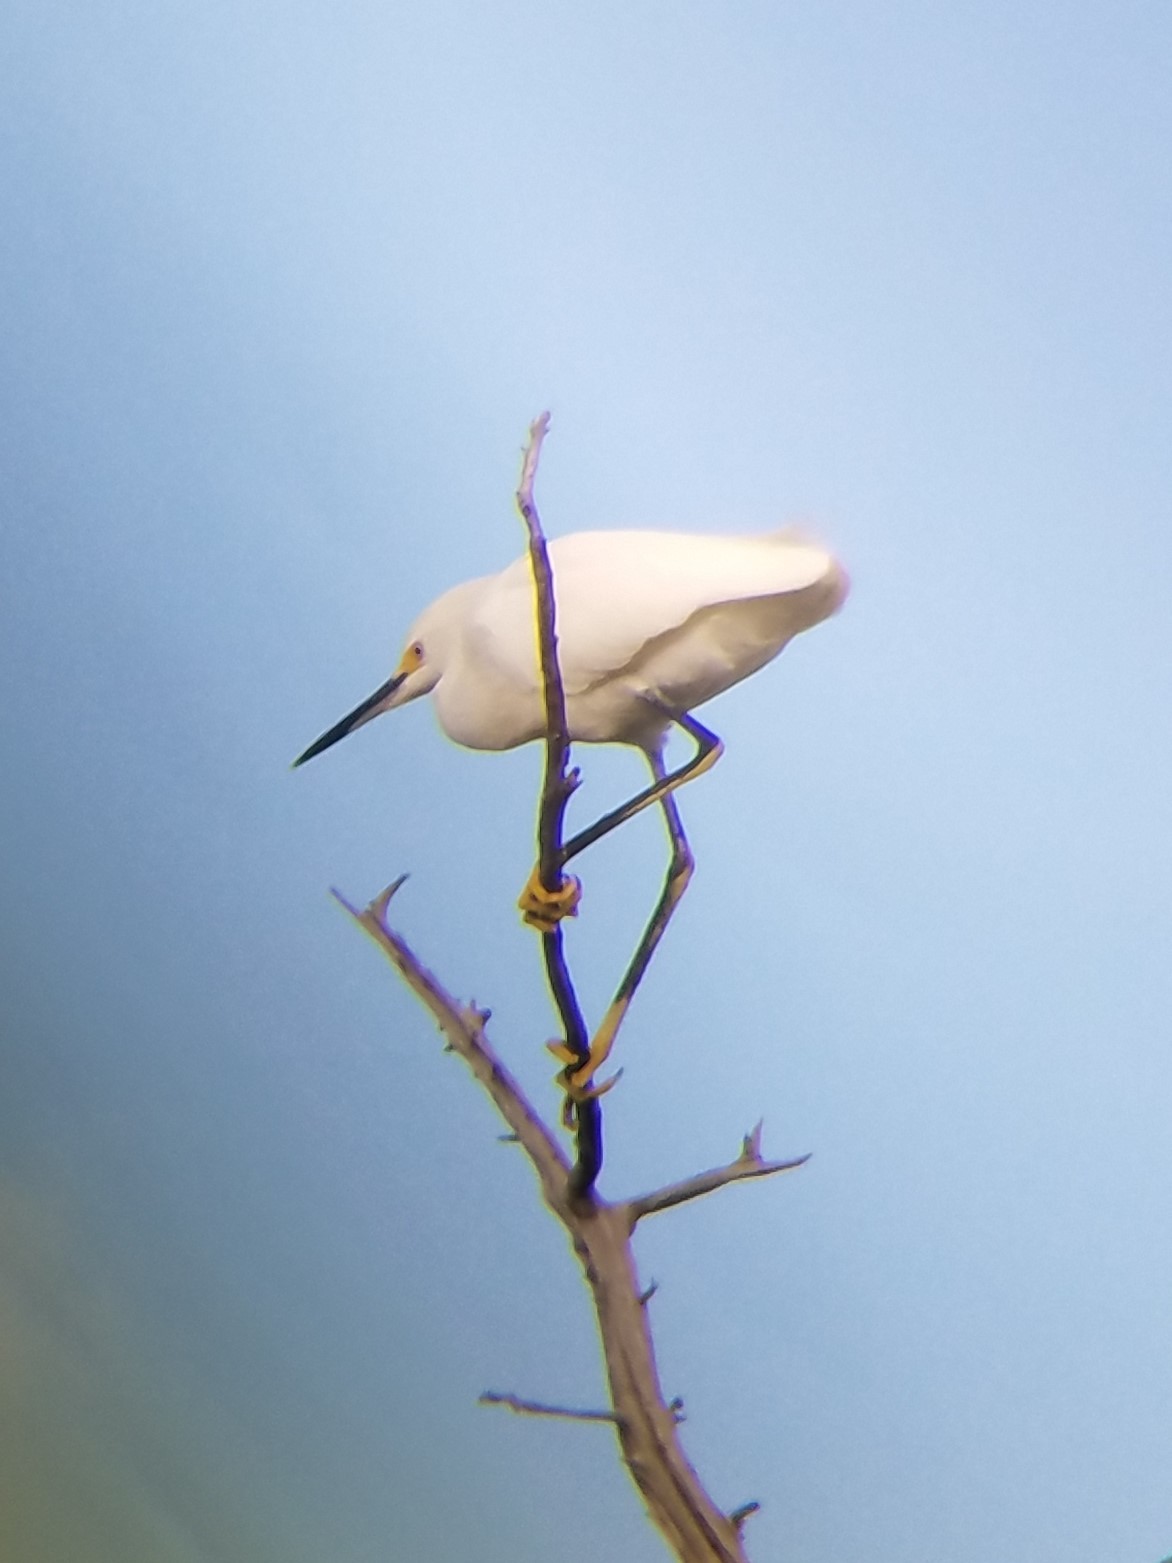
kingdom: Animalia
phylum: Chordata
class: Aves
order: Pelecaniformes
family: Ardeidae
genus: Egretta
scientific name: Egretta thula
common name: Snowy egret
